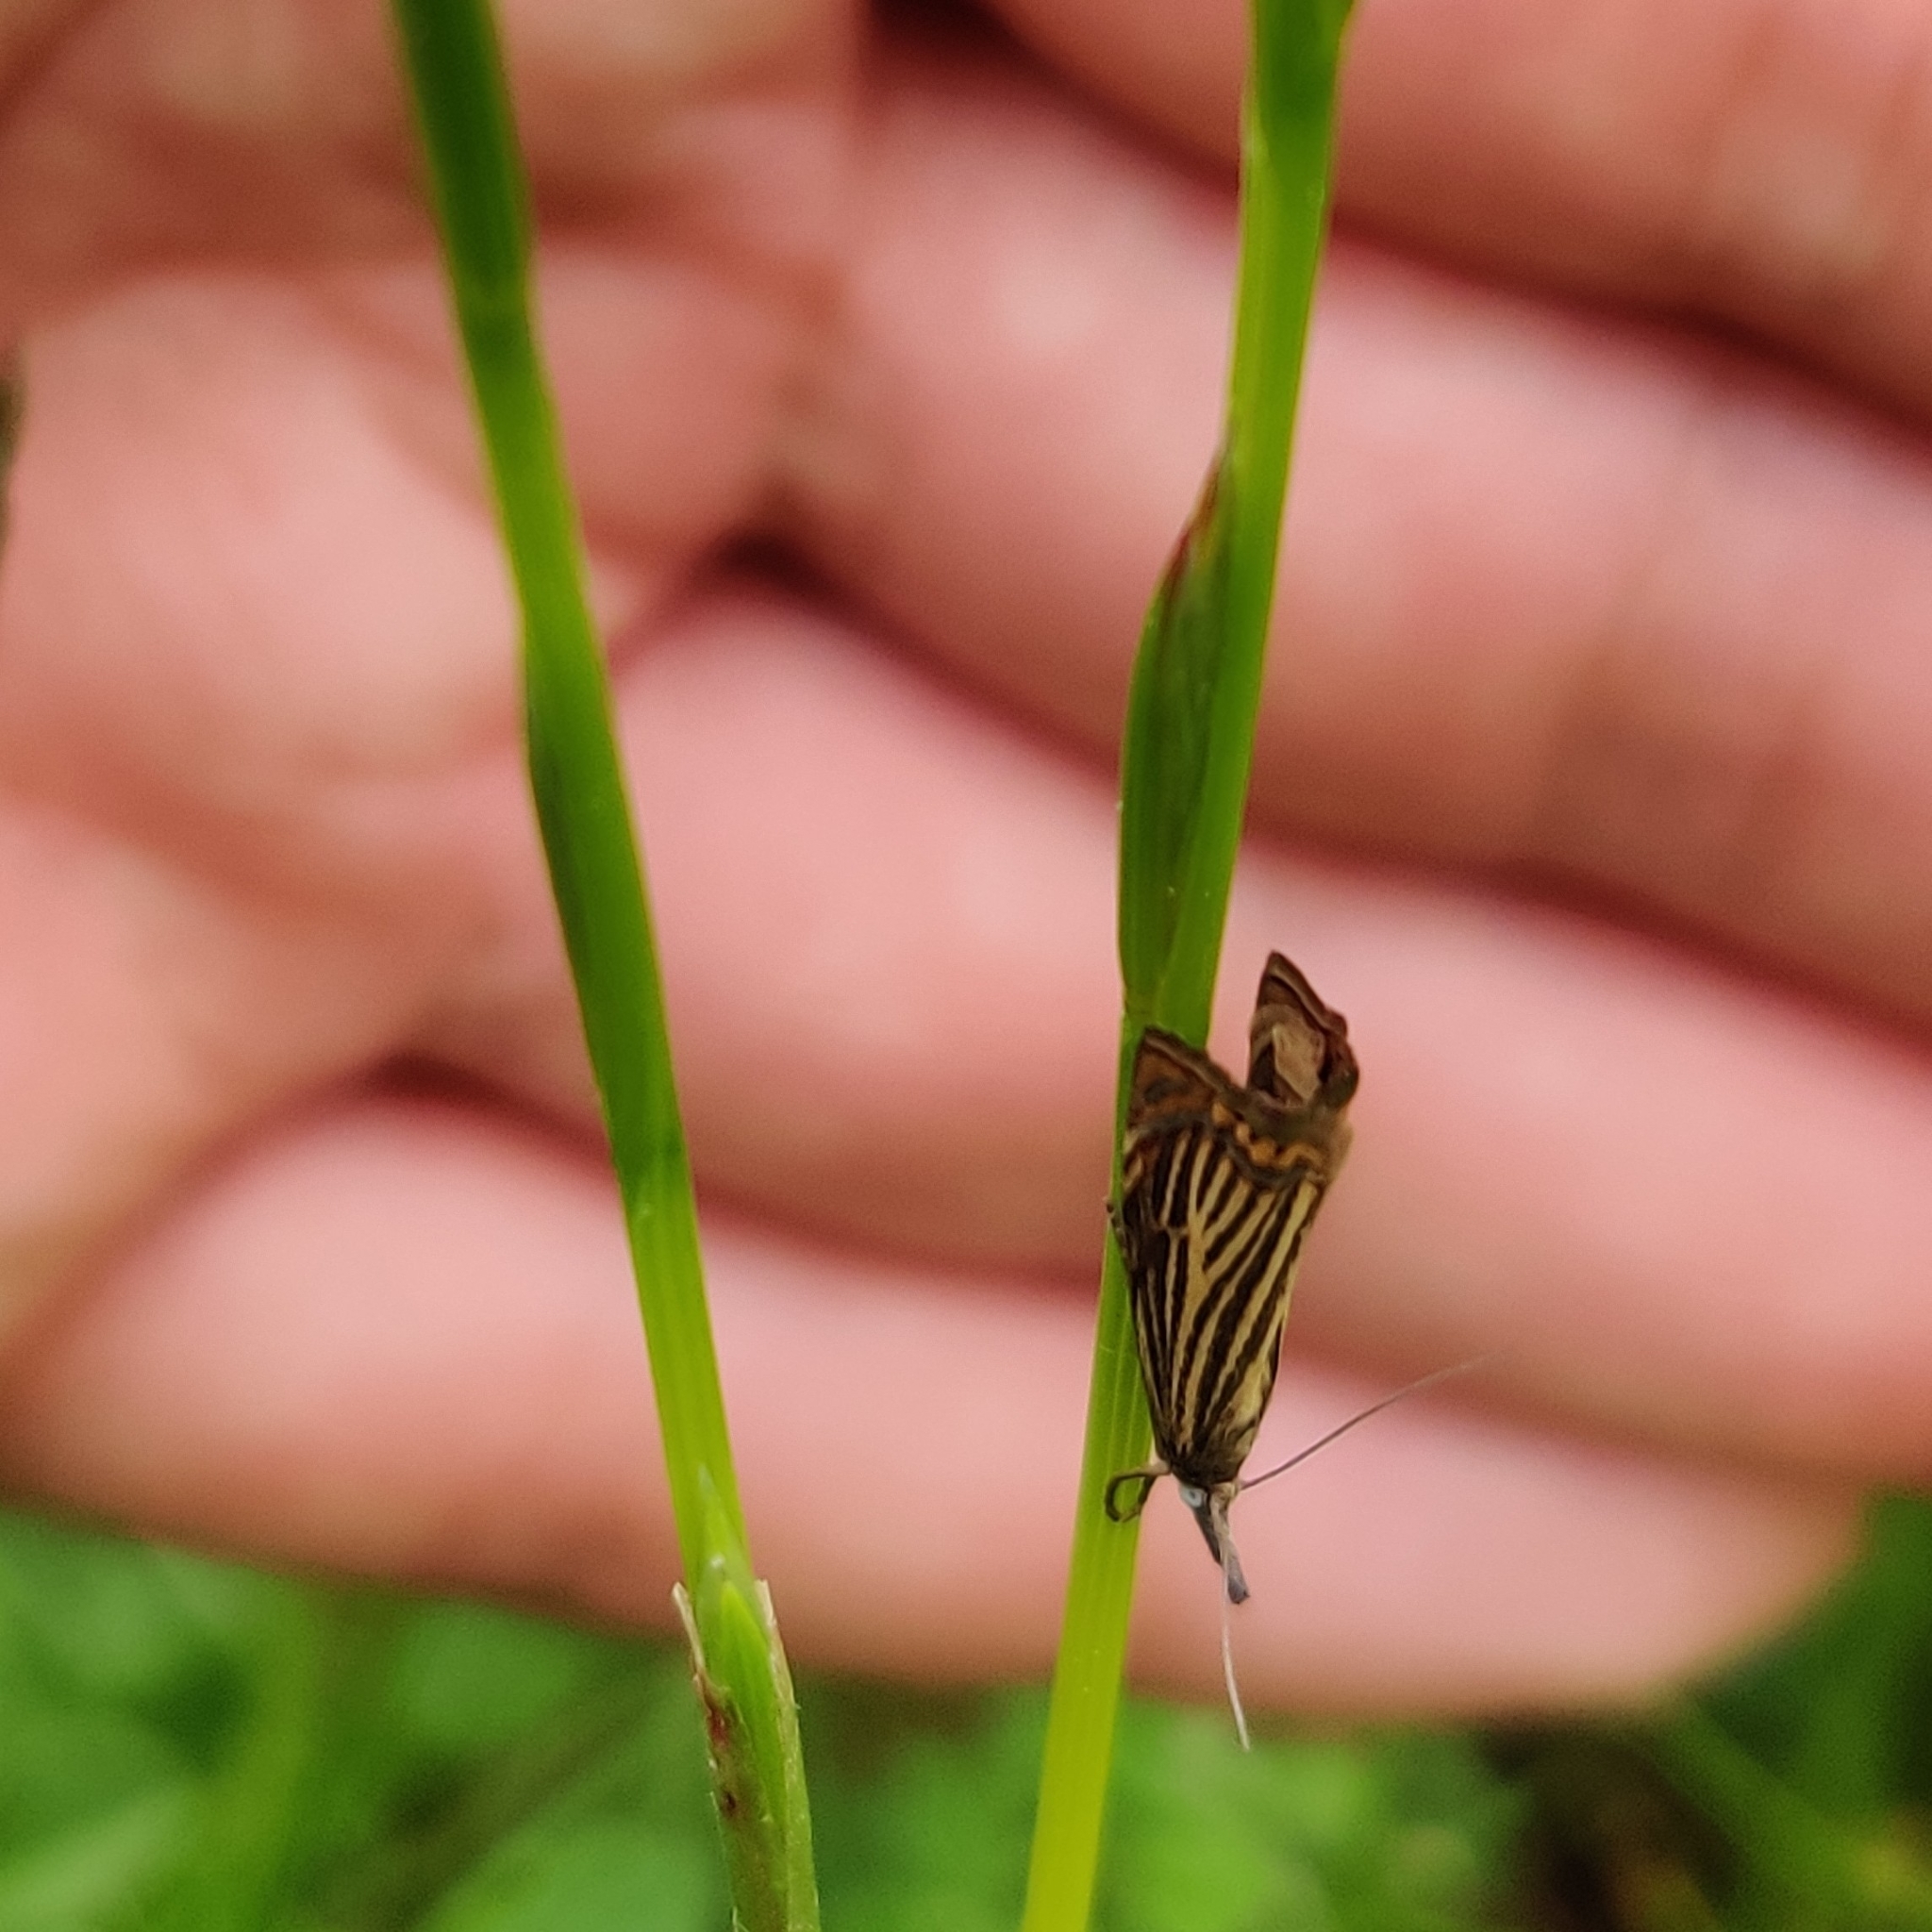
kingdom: Animalia
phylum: Arthropoda
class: Insecta
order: Lepidoptera
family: Crambidae
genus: Chrysoteuchia
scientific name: Chrysoteuchia culmella
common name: Garden grass-veneer
